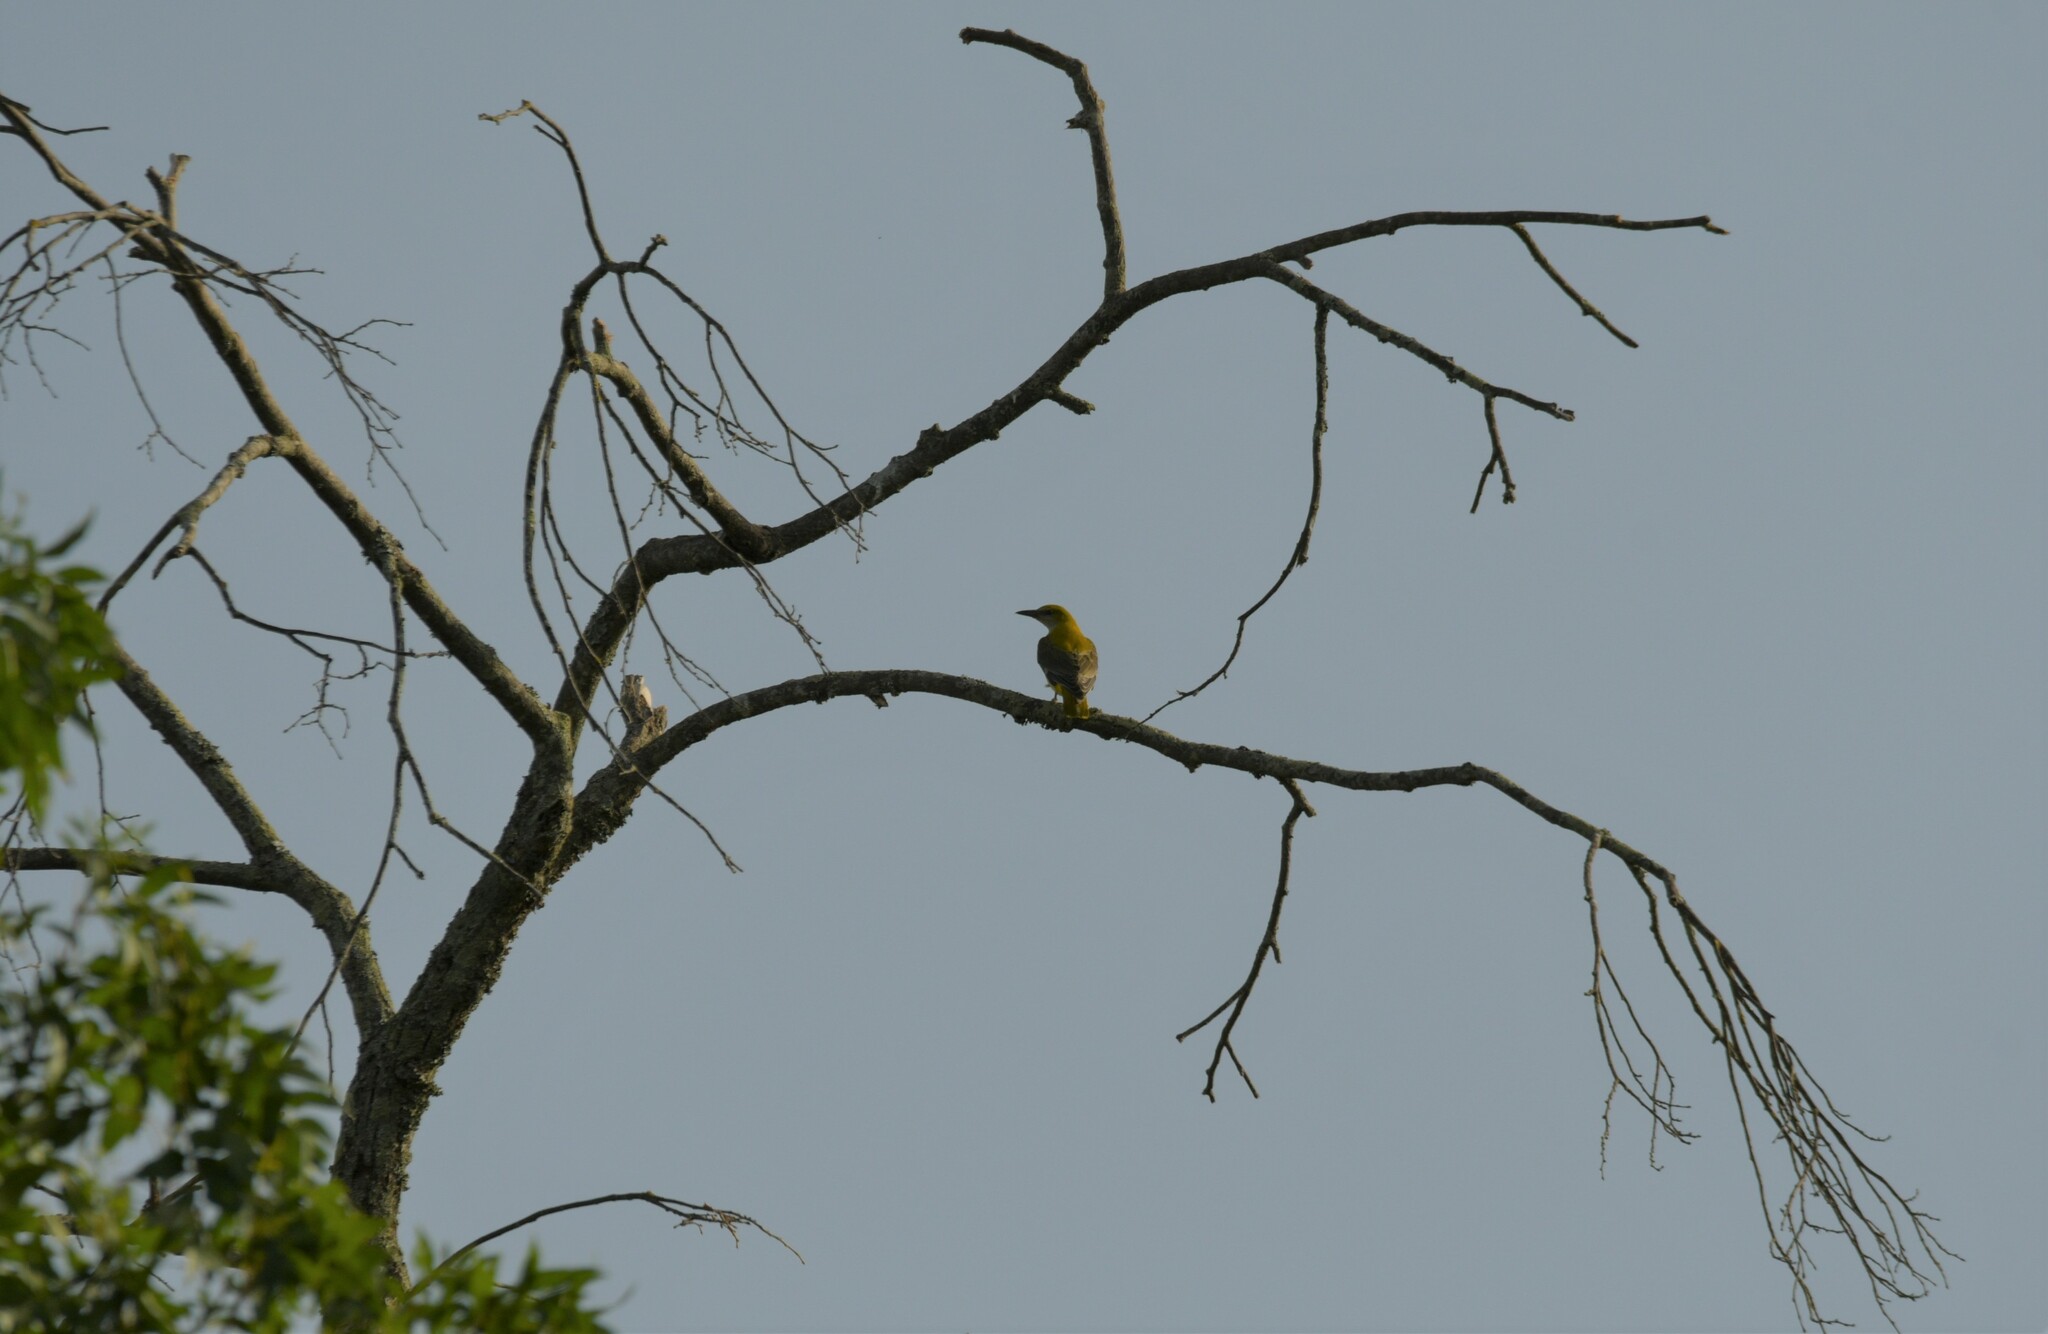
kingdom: Animalia
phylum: Chordata
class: Aves
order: Passeriformes
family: Oriolidae
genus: Oriolus
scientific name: Oriolus oriolus
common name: Eurasian golden oriole
